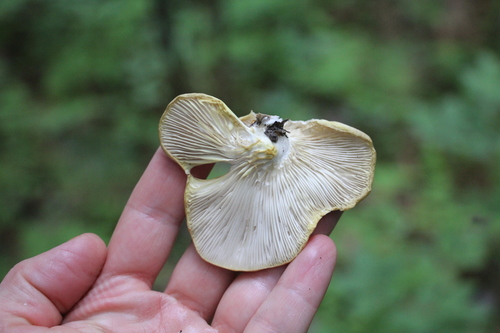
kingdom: Fungi
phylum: Basidiomycota
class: Agaricomycetes
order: Agaricales
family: Pleurotaceae
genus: Pleurotus
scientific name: Pleurotus pulmonarius
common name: Pale oyster
